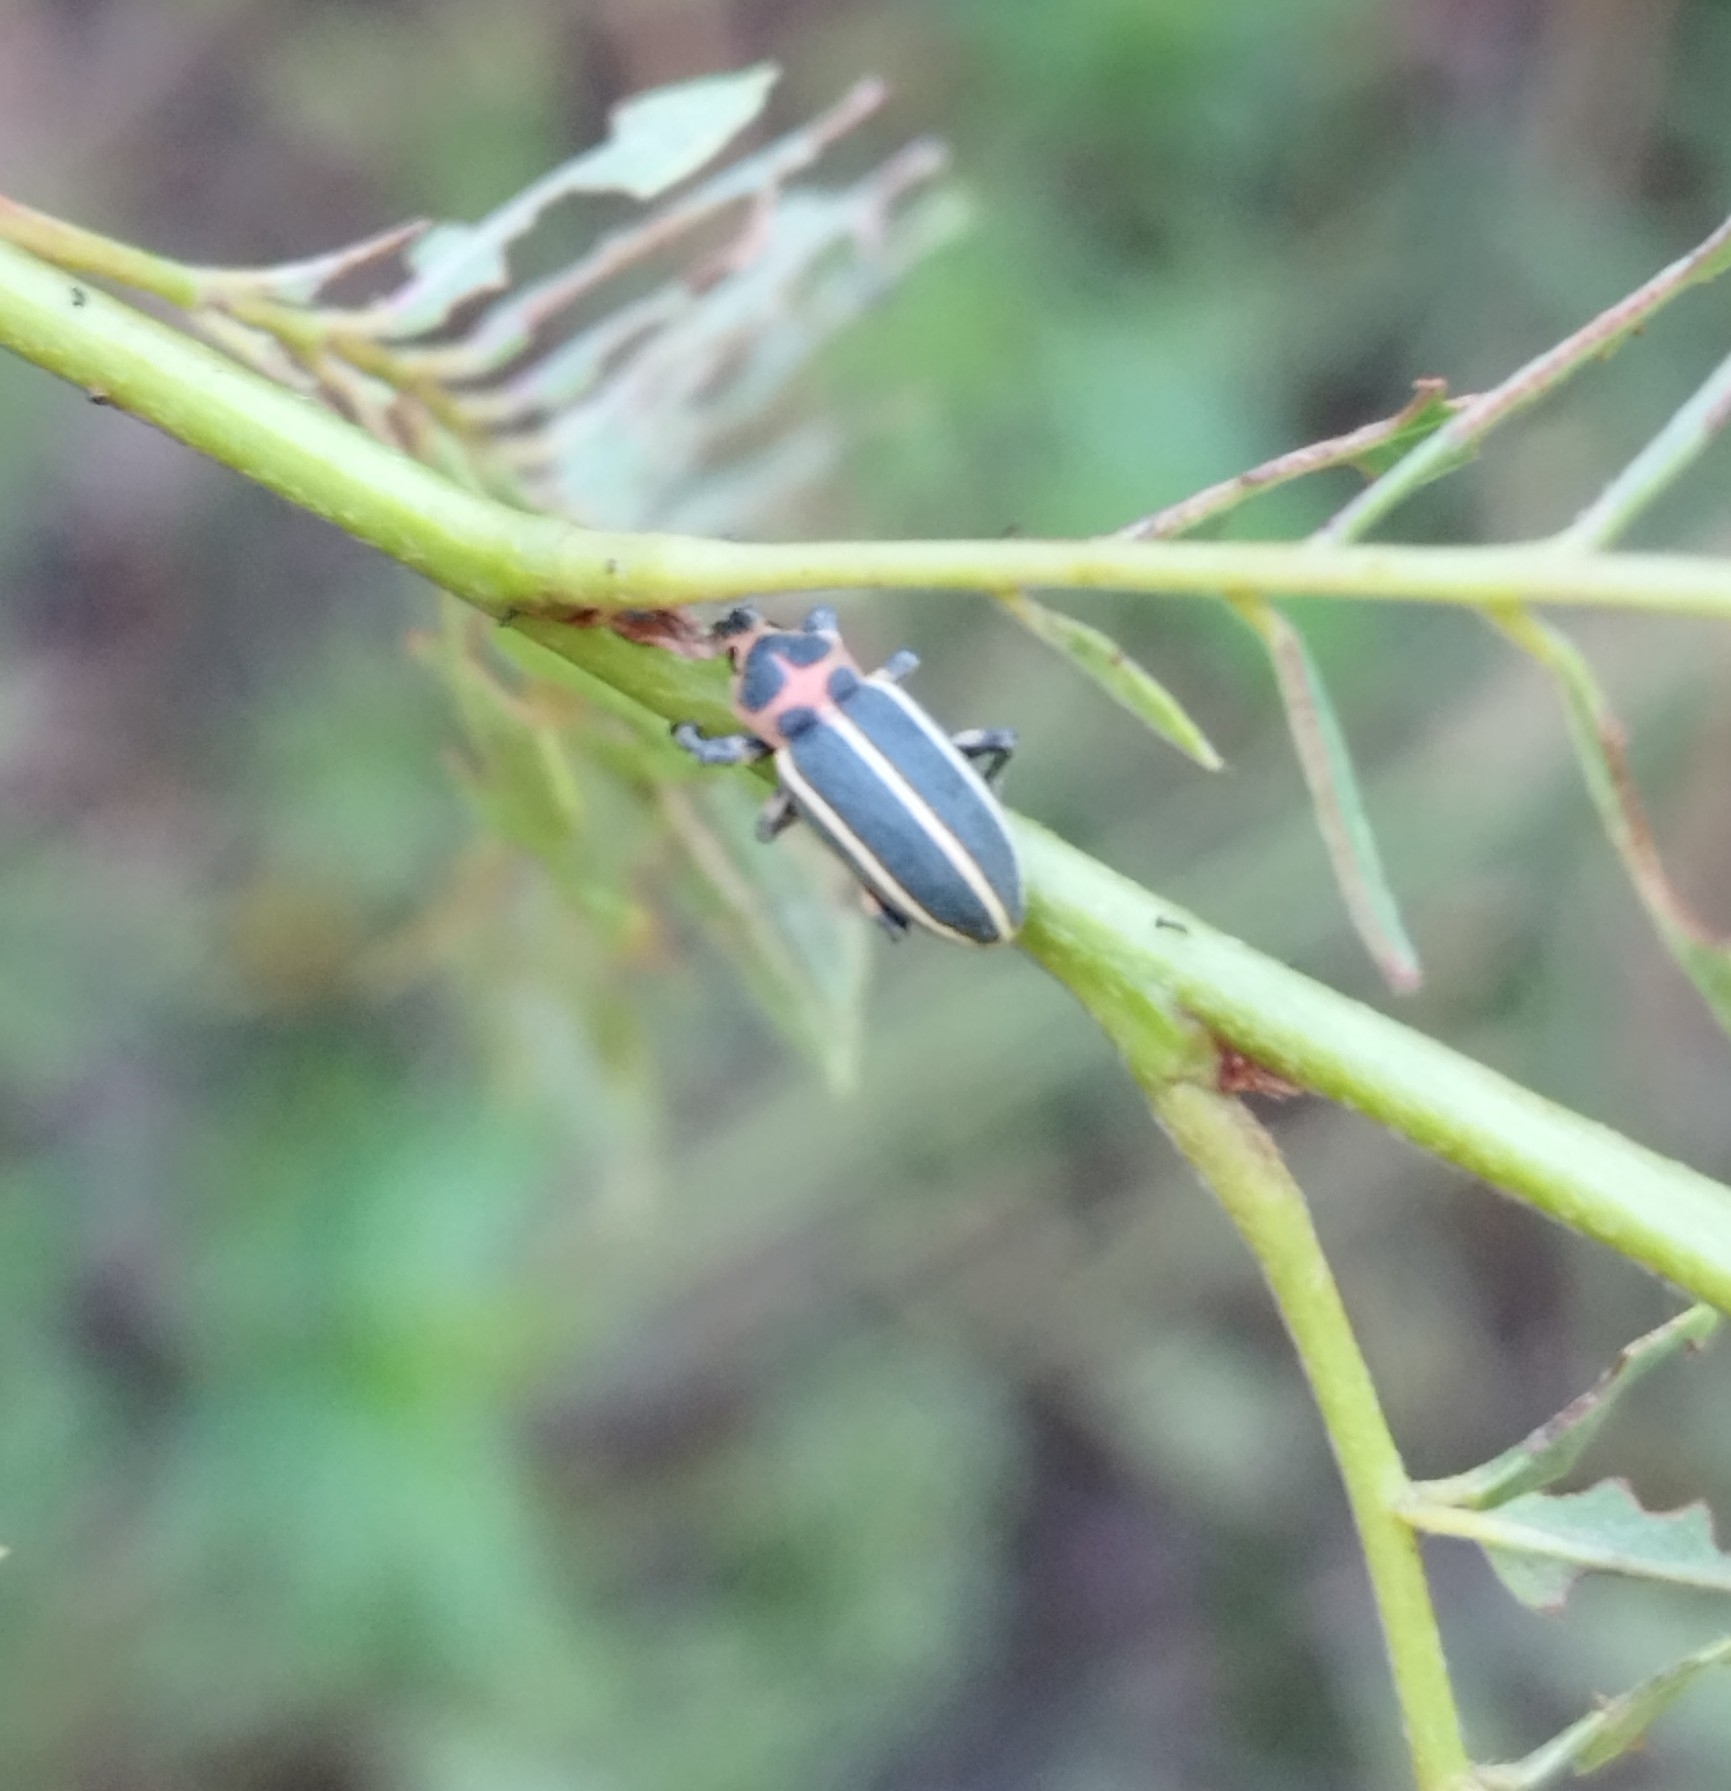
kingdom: Animalia
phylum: Arthropoda
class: Insecta
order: Coleoptera
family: Curculionidae
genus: Eudiagogus
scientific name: Eudiagogus episcopalis
